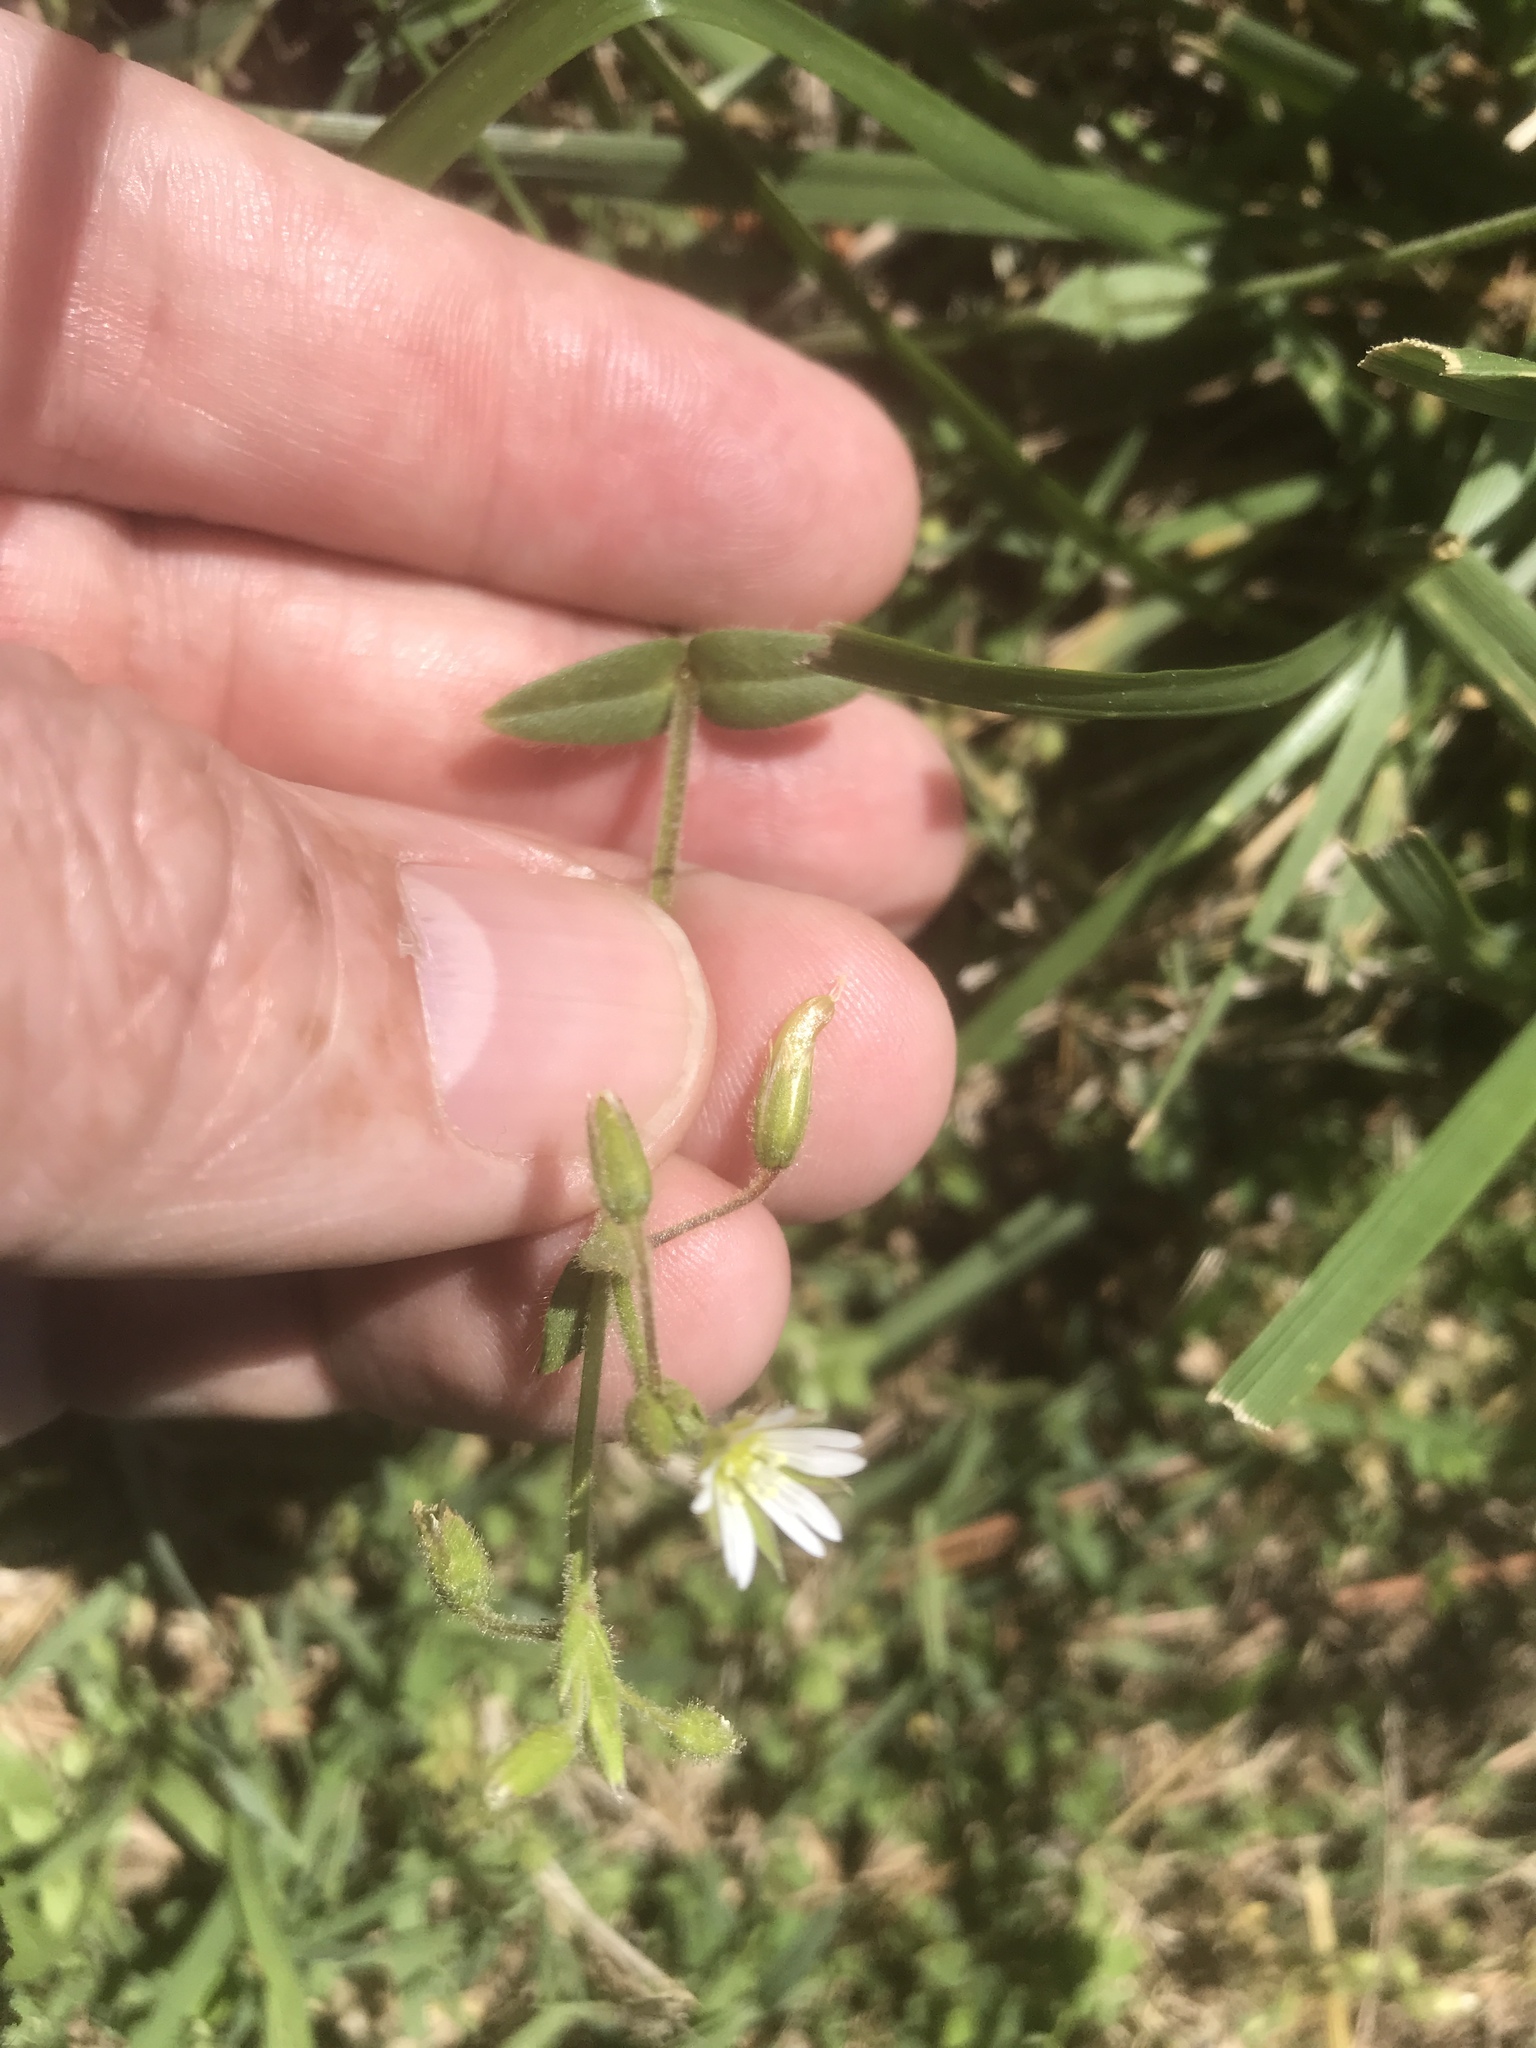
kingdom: Plantae
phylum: Tracheophyta
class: Magnoliopsida
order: Caryophyllales
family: Caryophyllaceae
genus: Cerastium
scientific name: Cerastium fontanum
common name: Common mouse-ear
